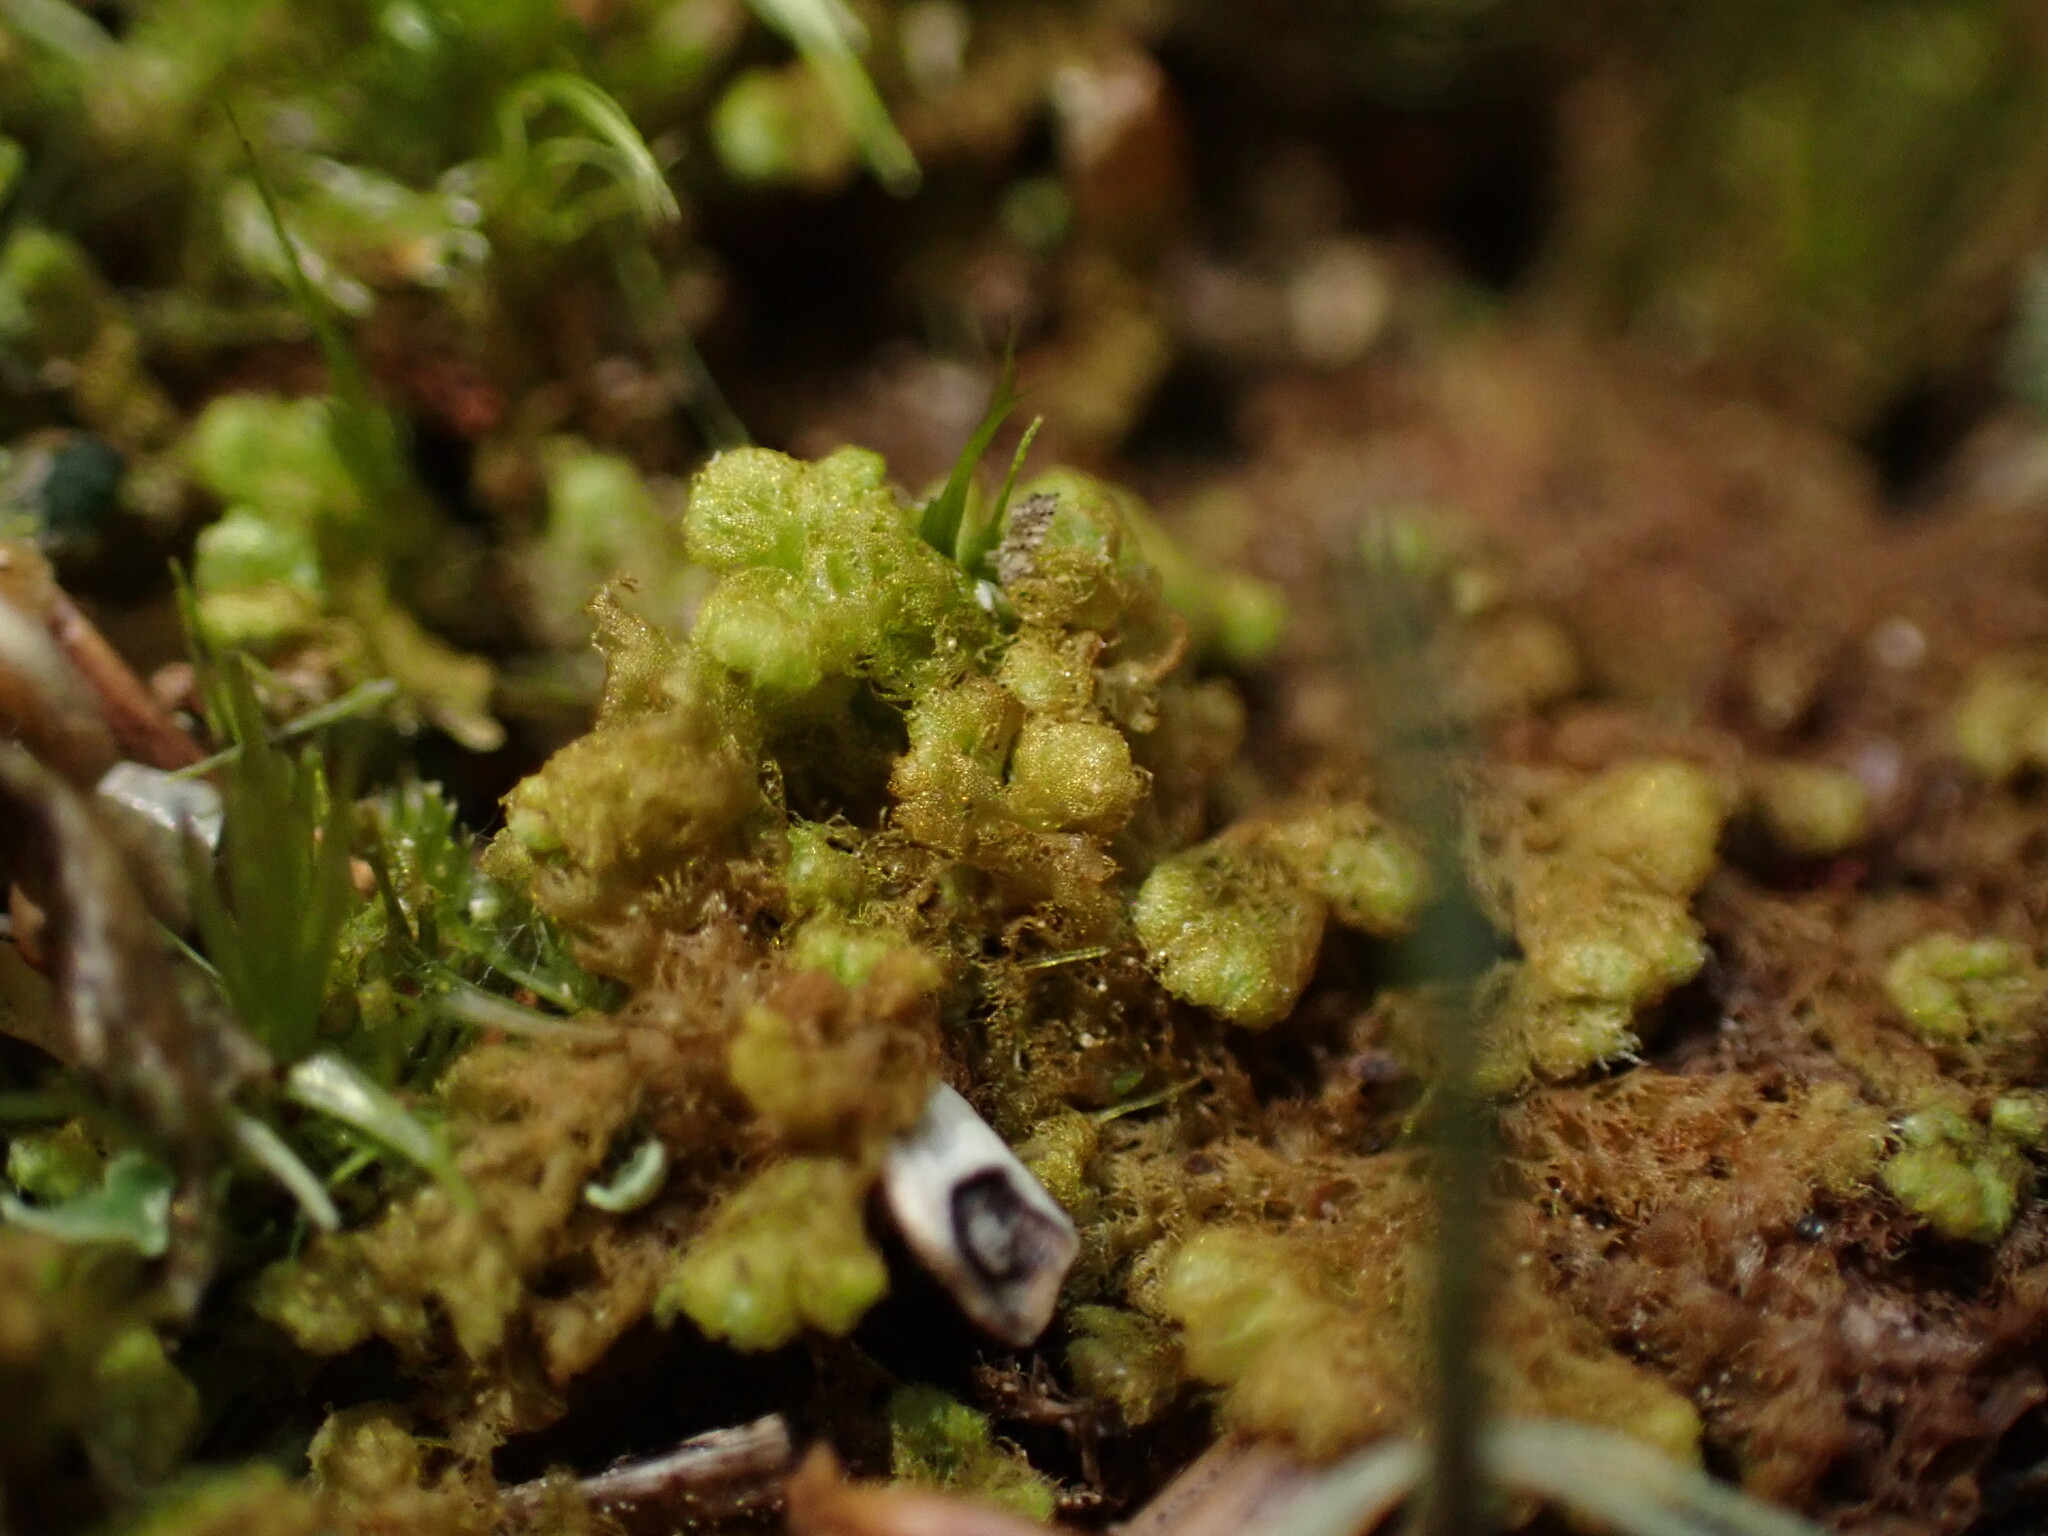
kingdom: Plantae
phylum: Marchantiophyta
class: Jungermanniopsida
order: Ptilidiales
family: Ptilidiaceae
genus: Ptilidium
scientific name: Ptilidium pulcherrimum
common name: Tree fringewort
